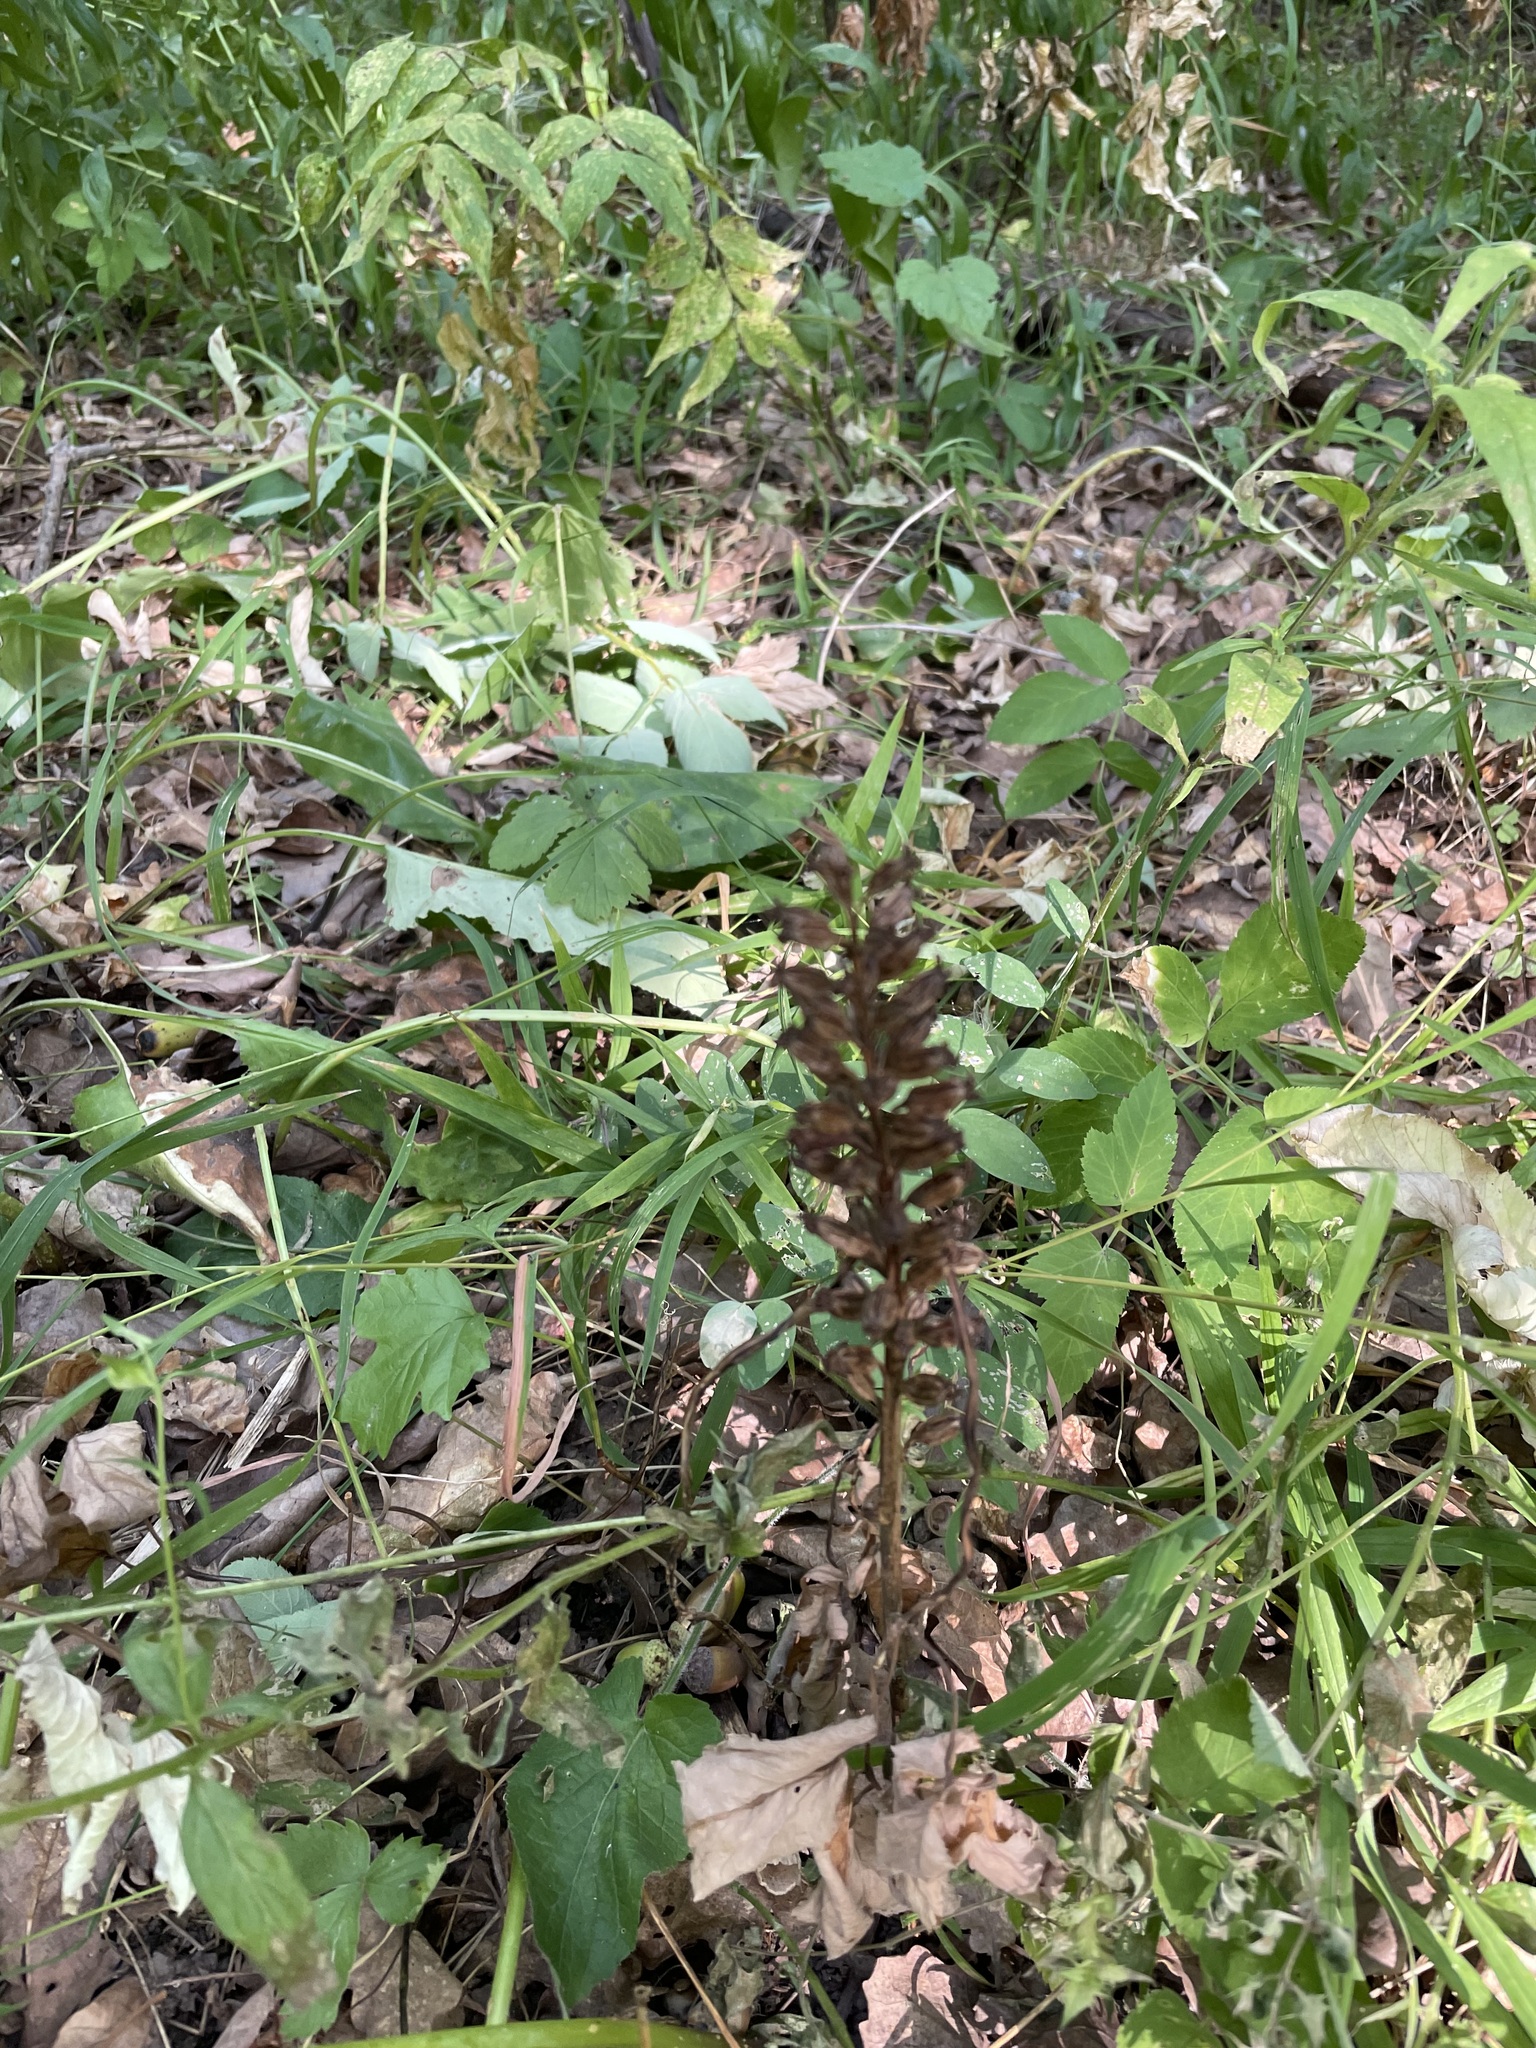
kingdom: Plantae
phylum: Tracheophyta
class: Liliopsida
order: Asparagales
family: Orchidaceae
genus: Neottia
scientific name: Neottia nidus-avis
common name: Bird's-nest orchid
